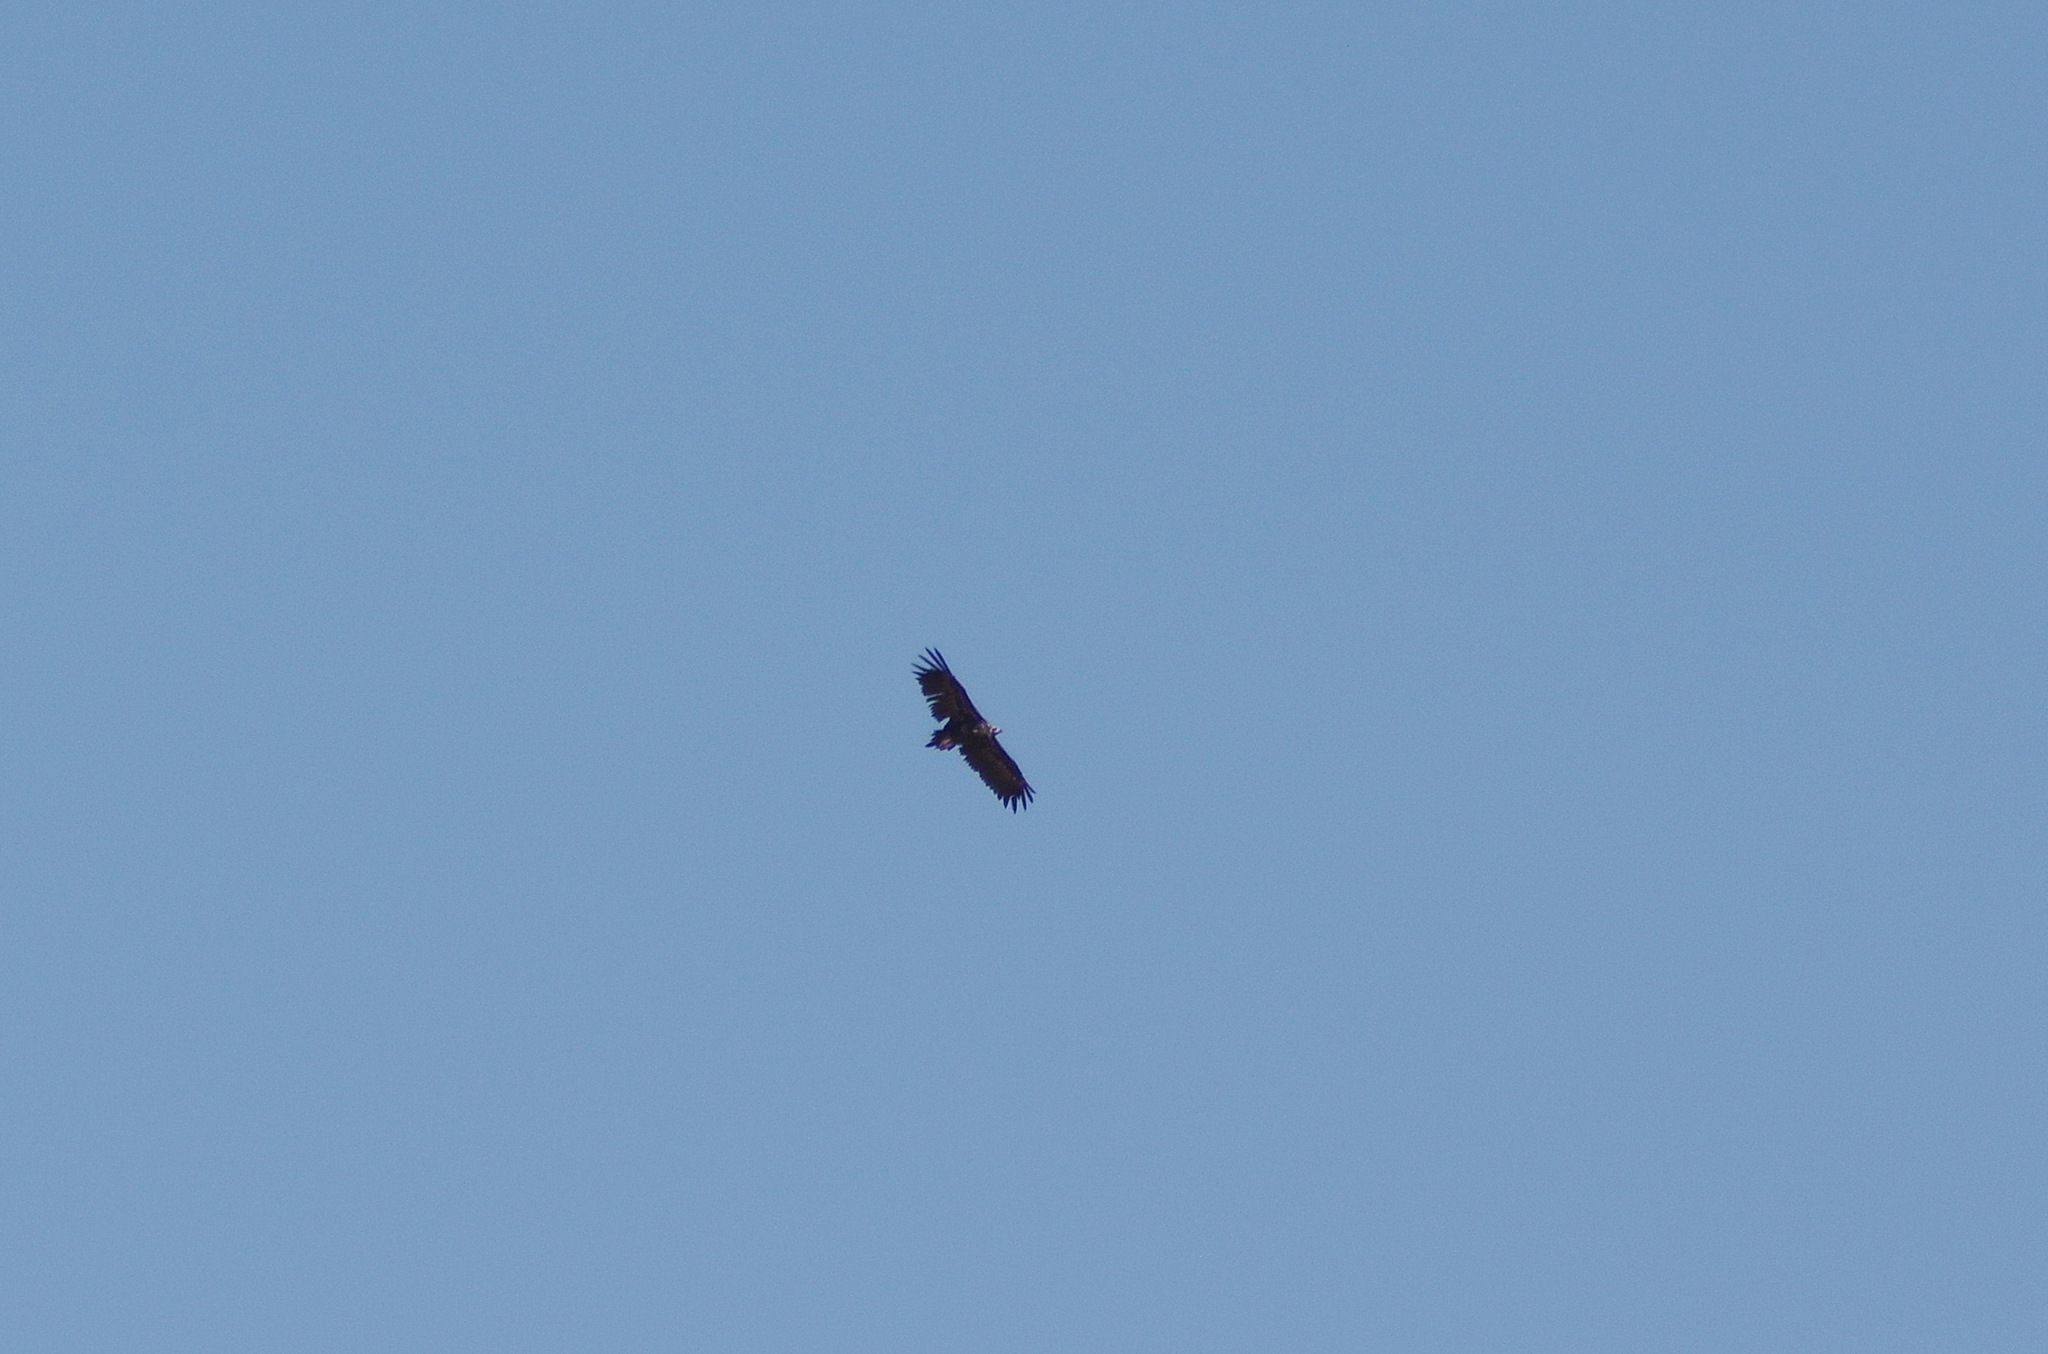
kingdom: Animalia
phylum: Chordata
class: Aves
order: Accipitriformes
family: Accipitridae
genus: Aegypius
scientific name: Aegypius monachus
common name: Cinereous vulture
